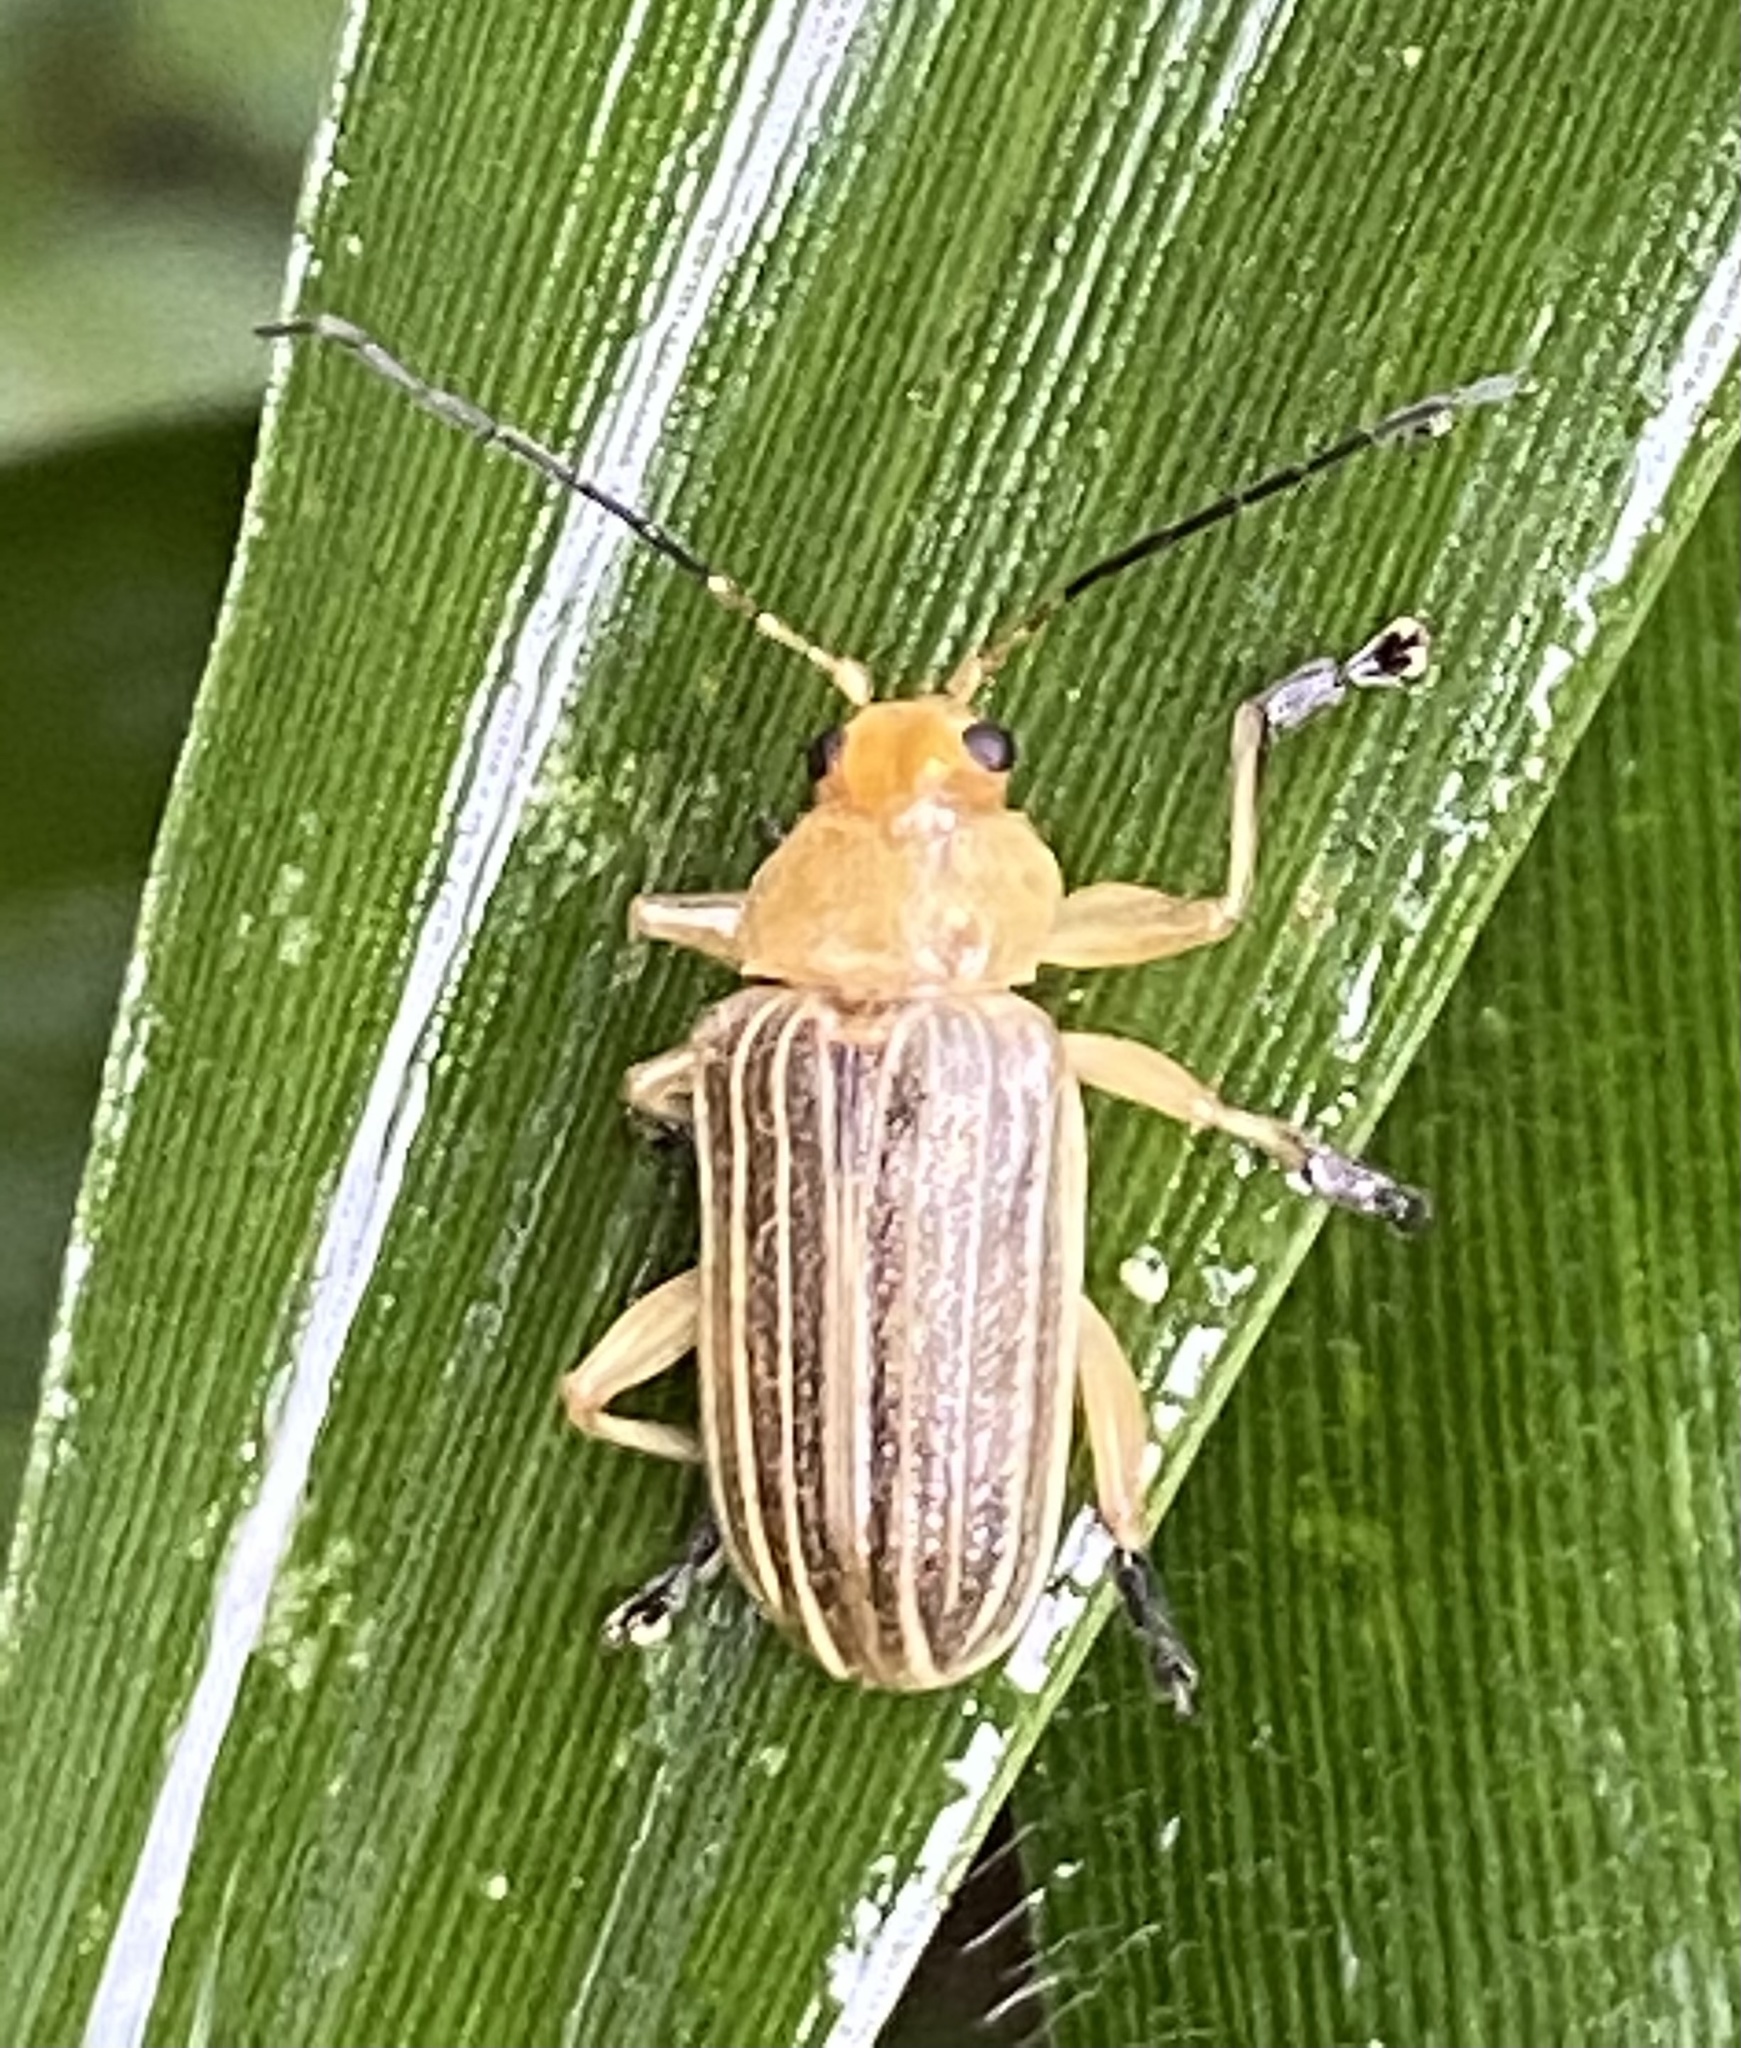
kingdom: Animalia
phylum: Arthropoda
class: Insecta
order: Coleoptera
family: Chrysomelidae
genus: Metaxyonycha
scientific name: Metaxyonycha
